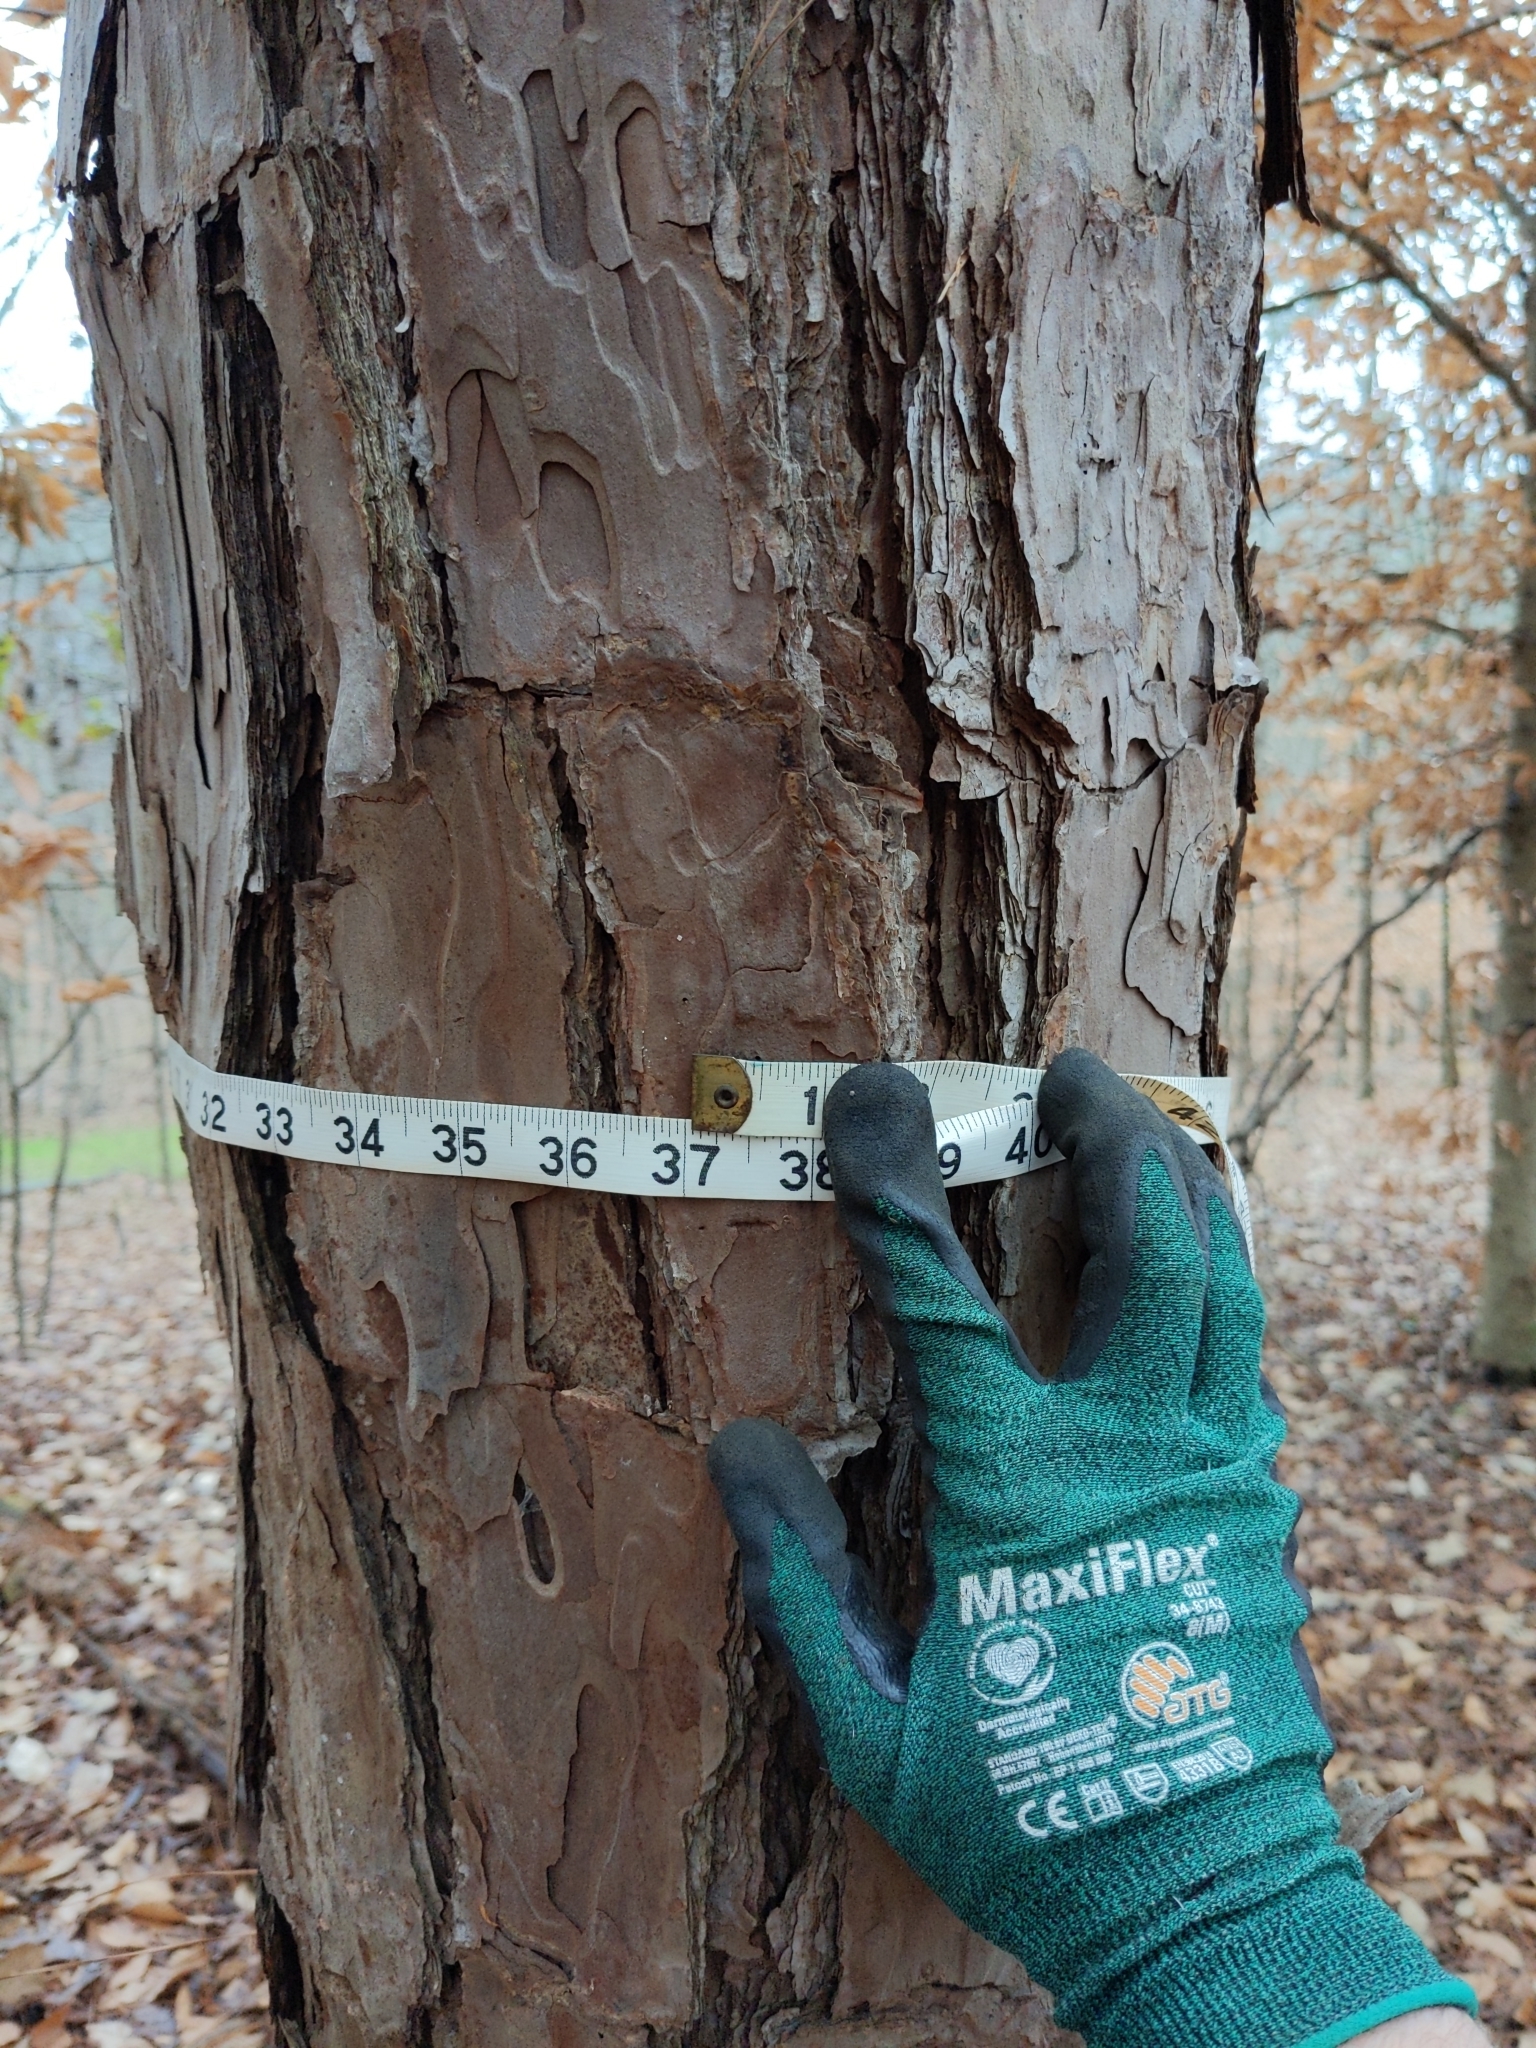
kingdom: Plantae
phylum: Tracheophyta
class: Pinopsida
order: Pinales
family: Pinaceae
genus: Pinus
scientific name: Pinus echinata
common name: Shortleaf pine
